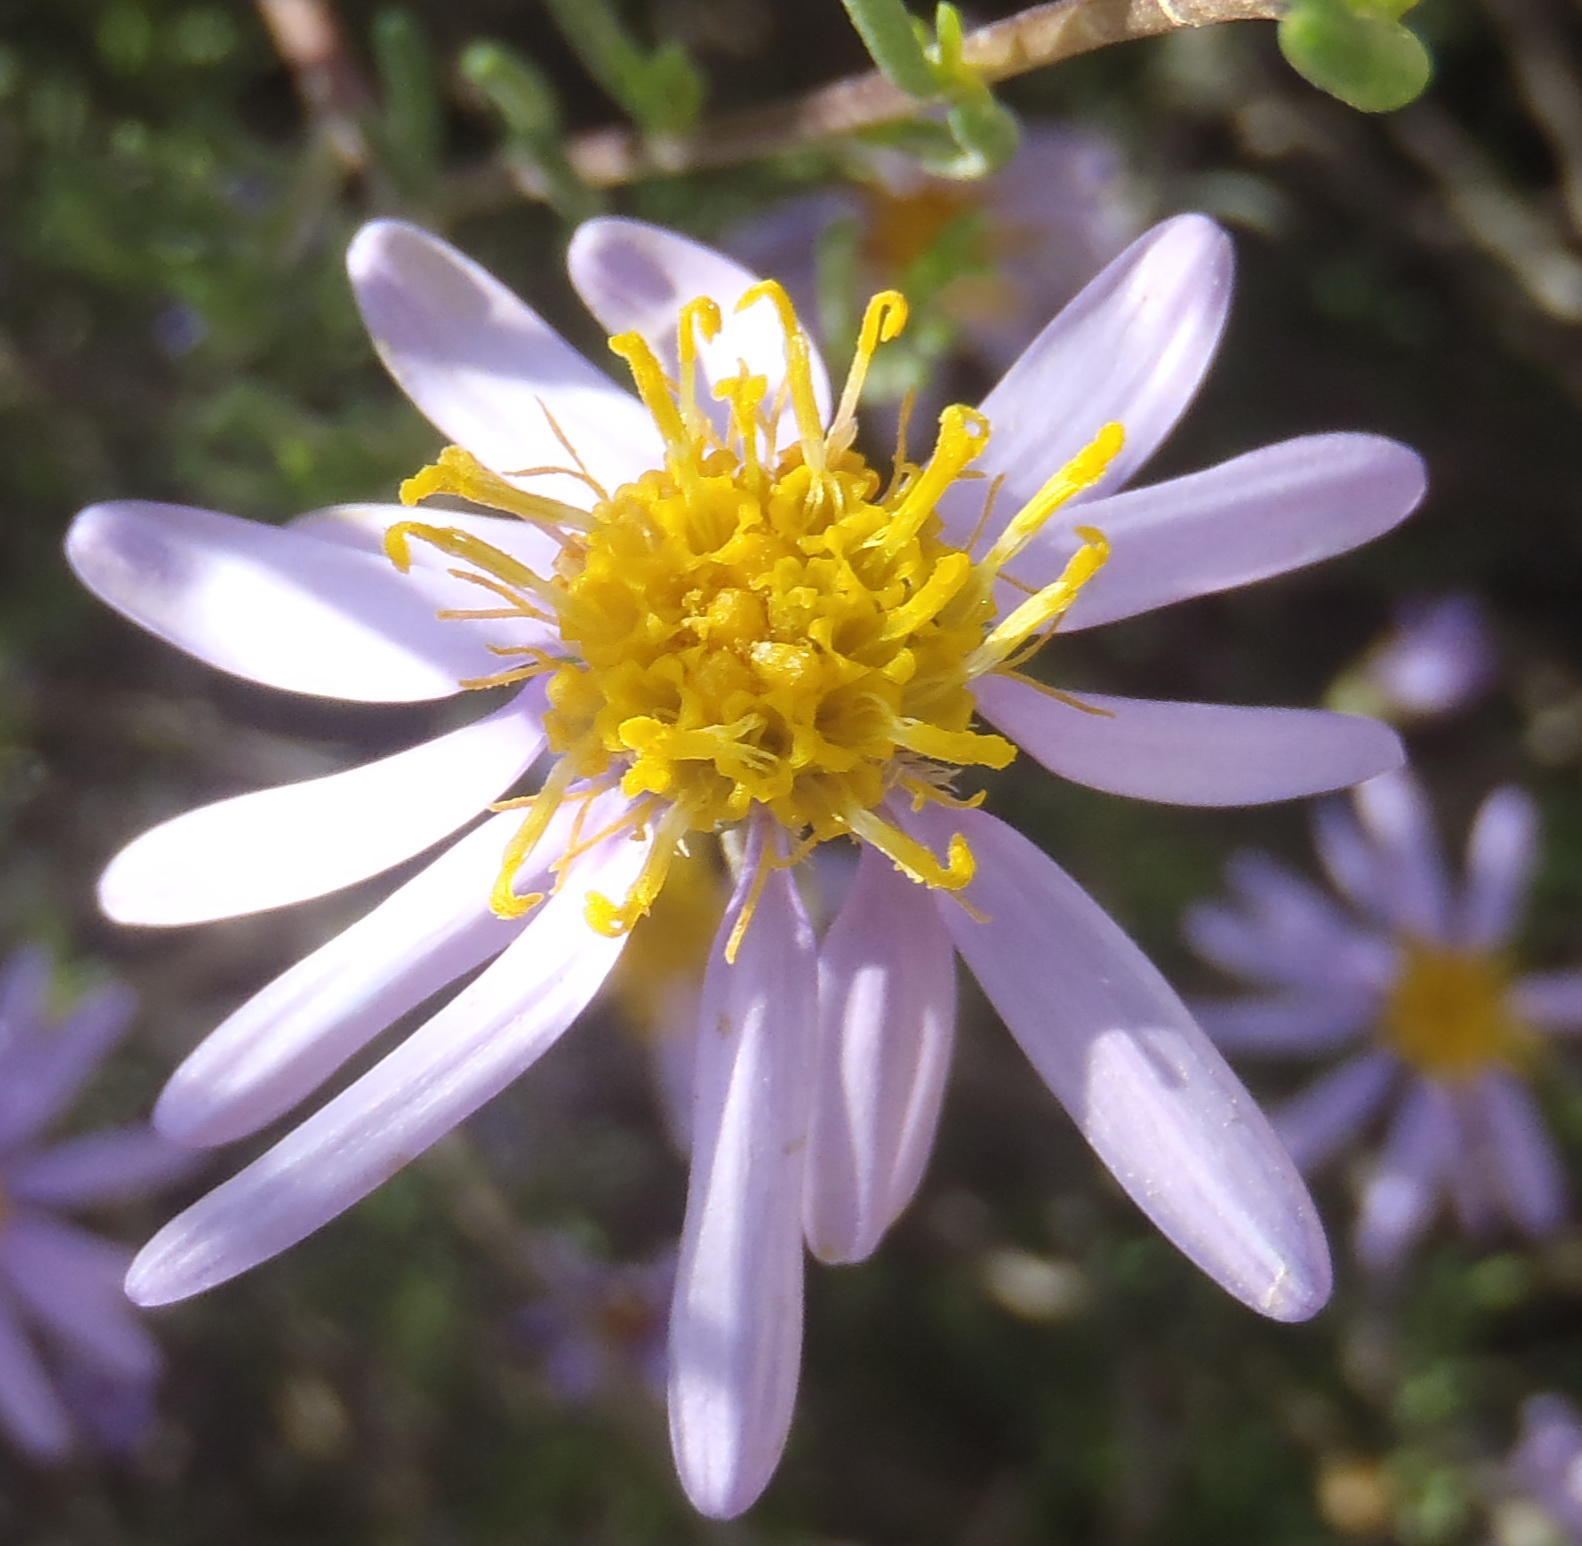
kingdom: Plantae
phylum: Tracheophyta
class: Magnoliopsida
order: Asterales
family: Asteraceae
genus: Felicia
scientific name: Felicia filifolia
